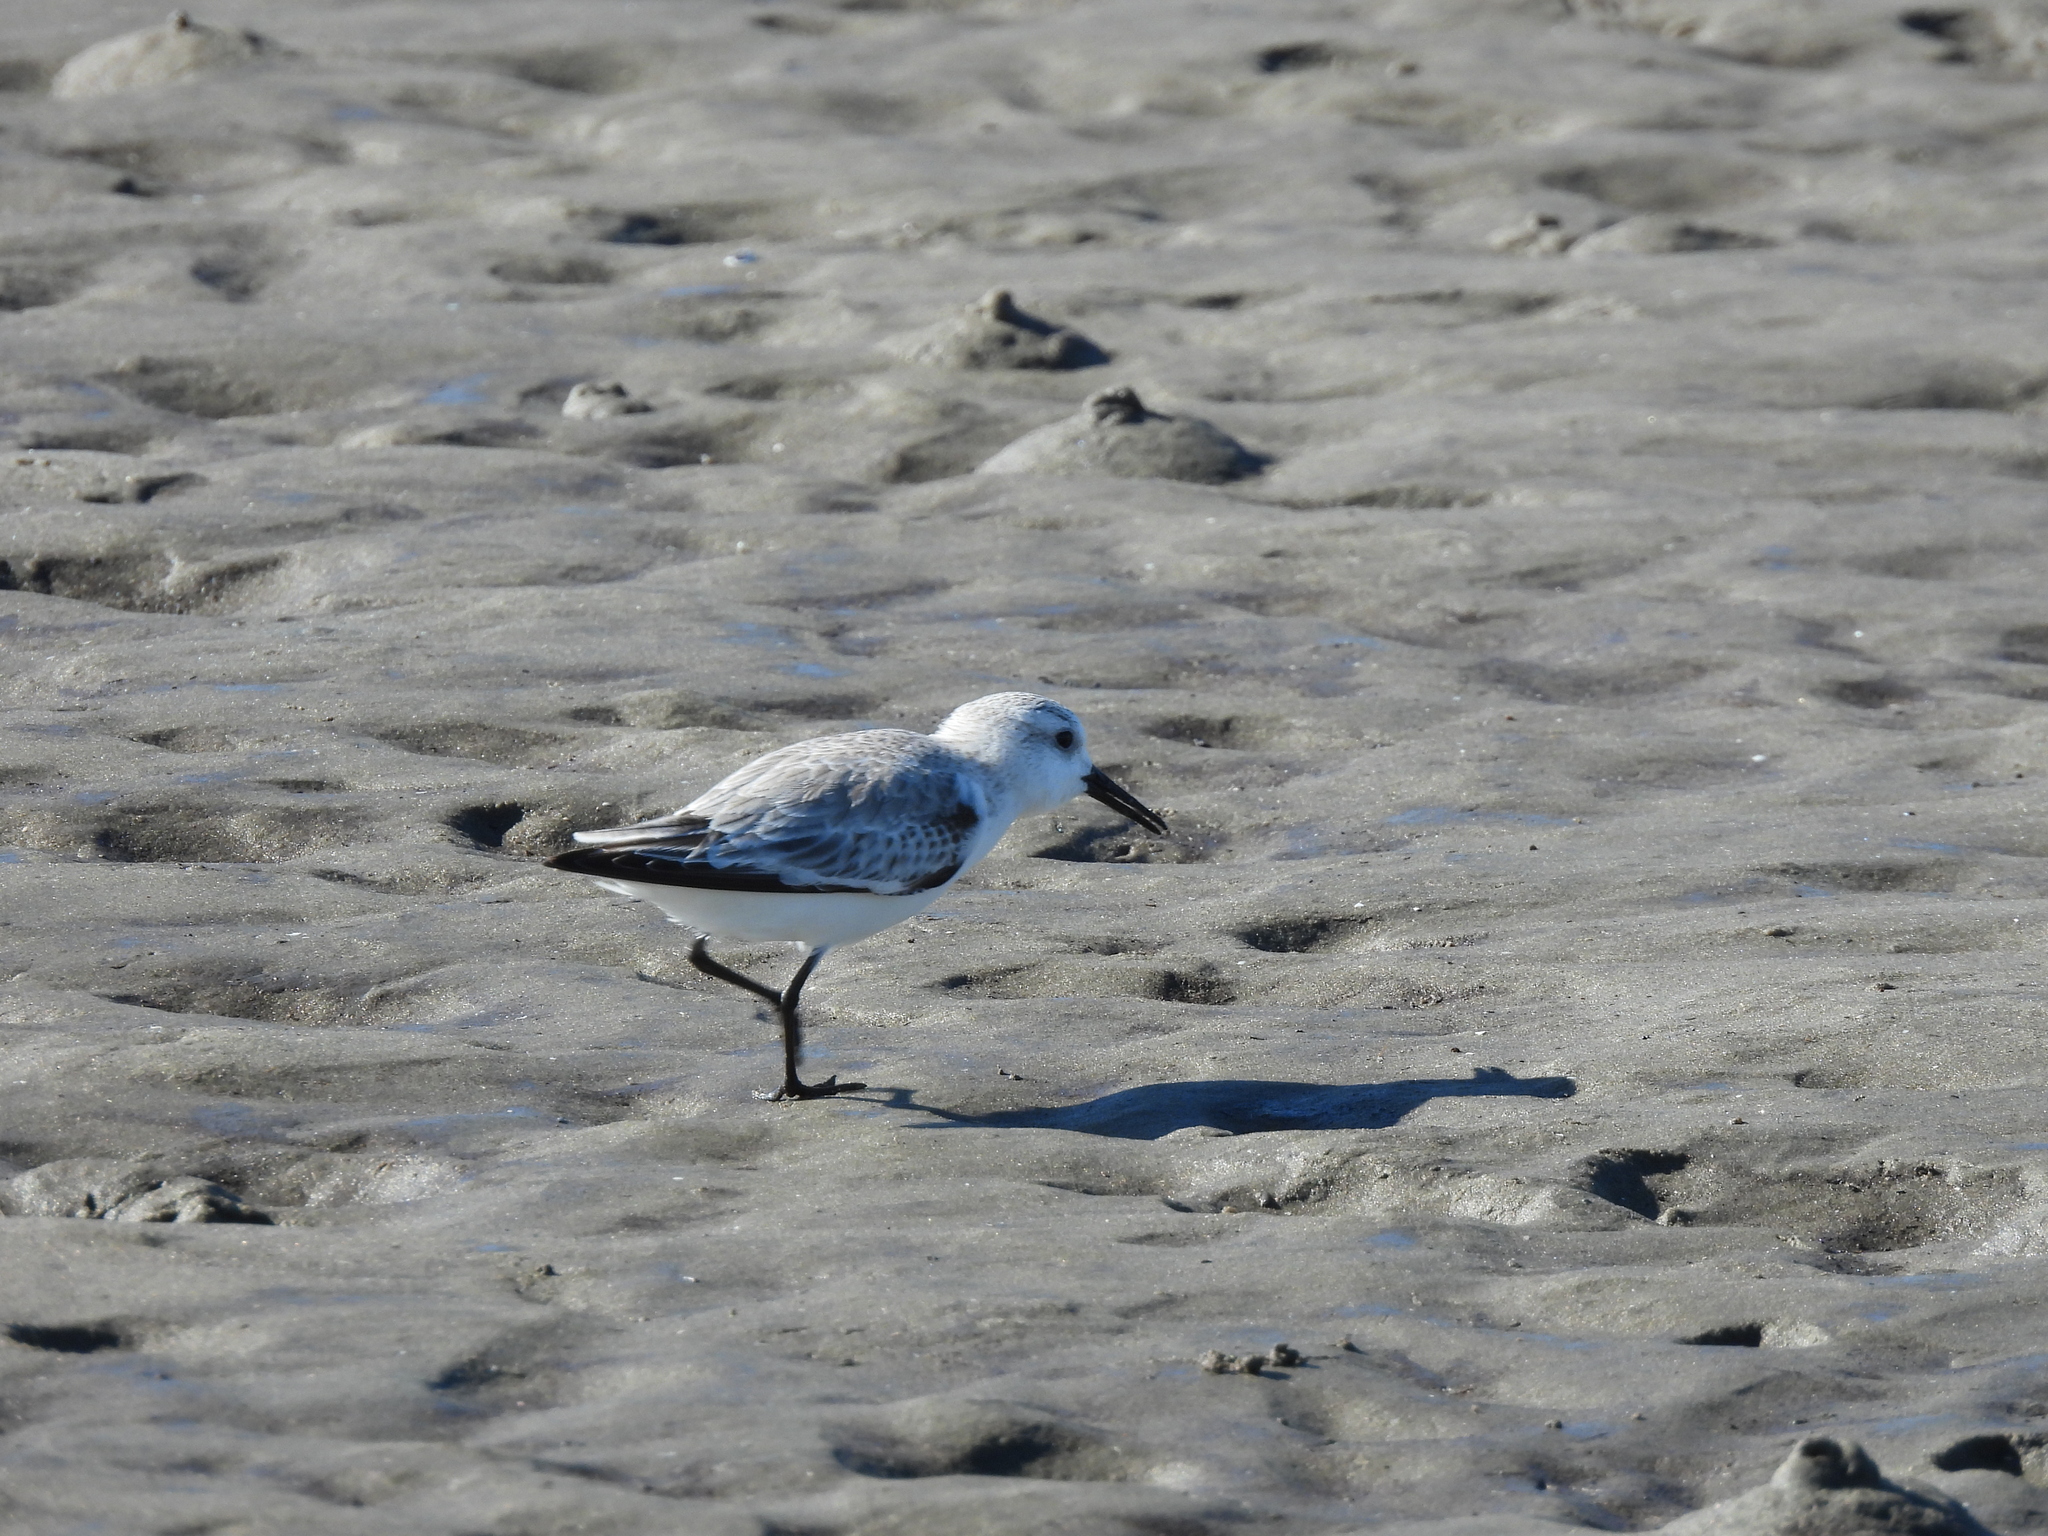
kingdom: Animalia
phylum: Chordata
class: Aves
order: Charadriiformes
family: Scolopacidae
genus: Calidris
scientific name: Calidris alba
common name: Sanderling
